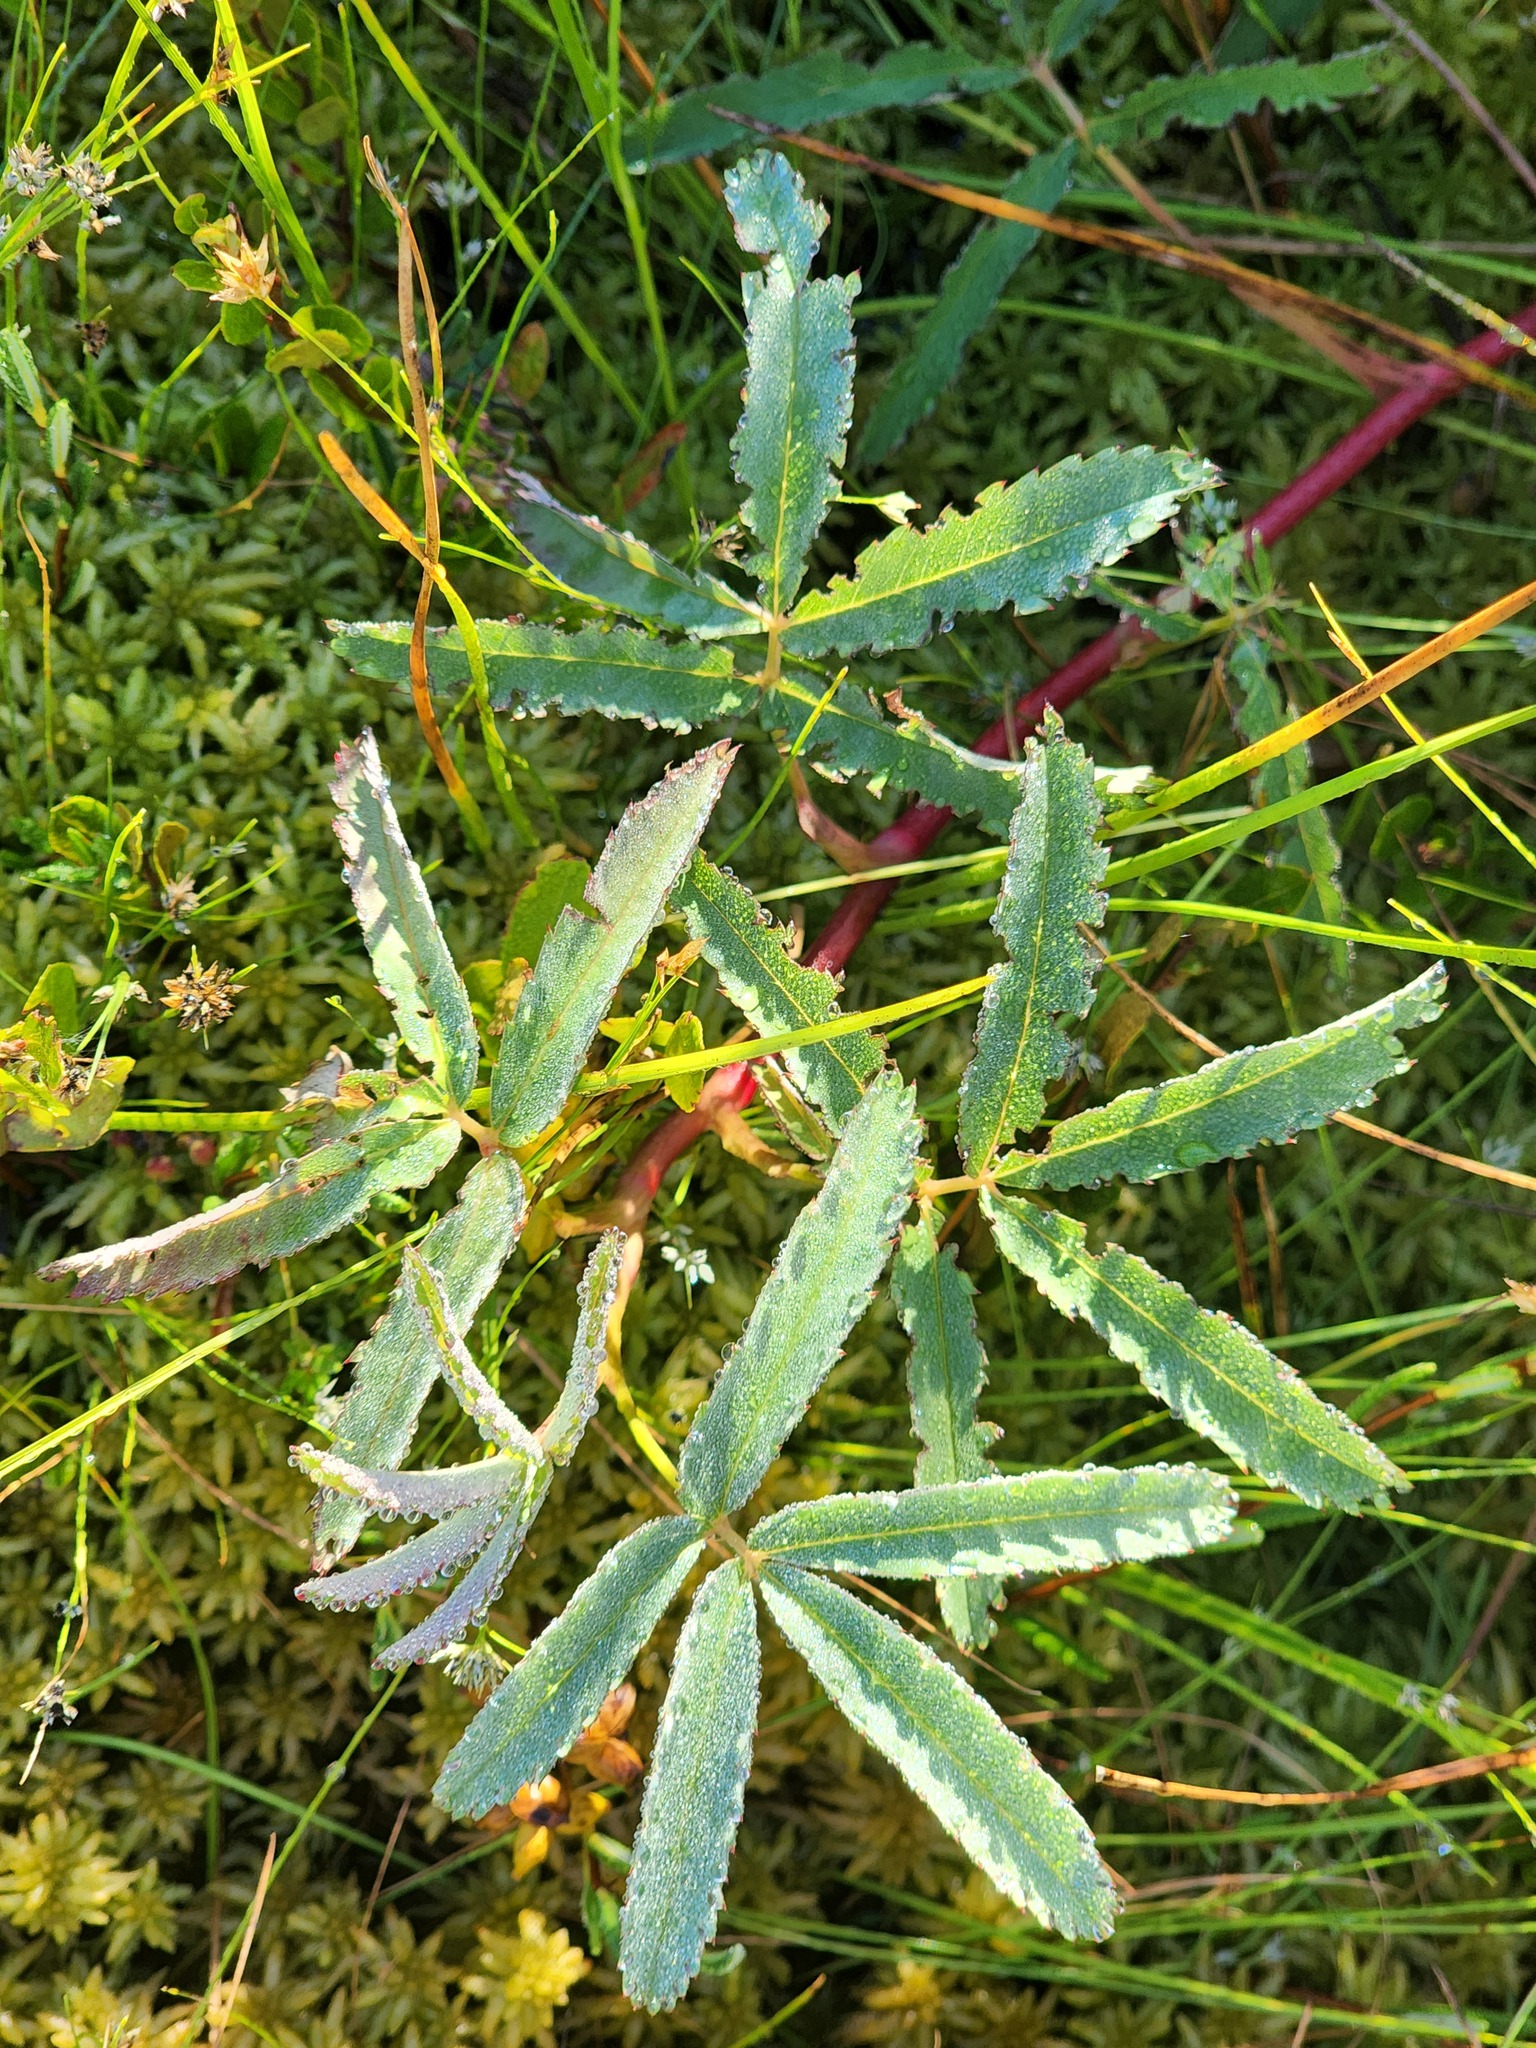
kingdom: Plantae
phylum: Tracheophyta
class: Magnoliopsida
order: Rosales
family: Rosaceae
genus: Comarum
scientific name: Comarum palustre
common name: Marsh cinquefoil
